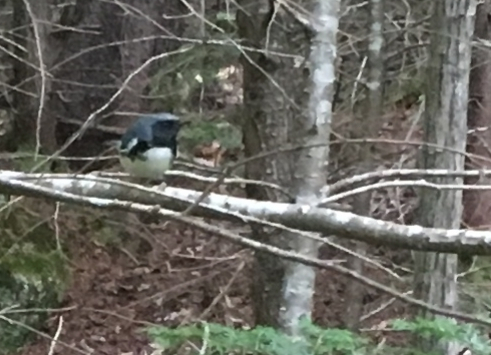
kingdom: Animalia
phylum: Chordata
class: Aves
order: Passeriformes
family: Parulidae
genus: Setophaga
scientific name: Setophaga caerulescens
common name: Black-throated blue warbler
